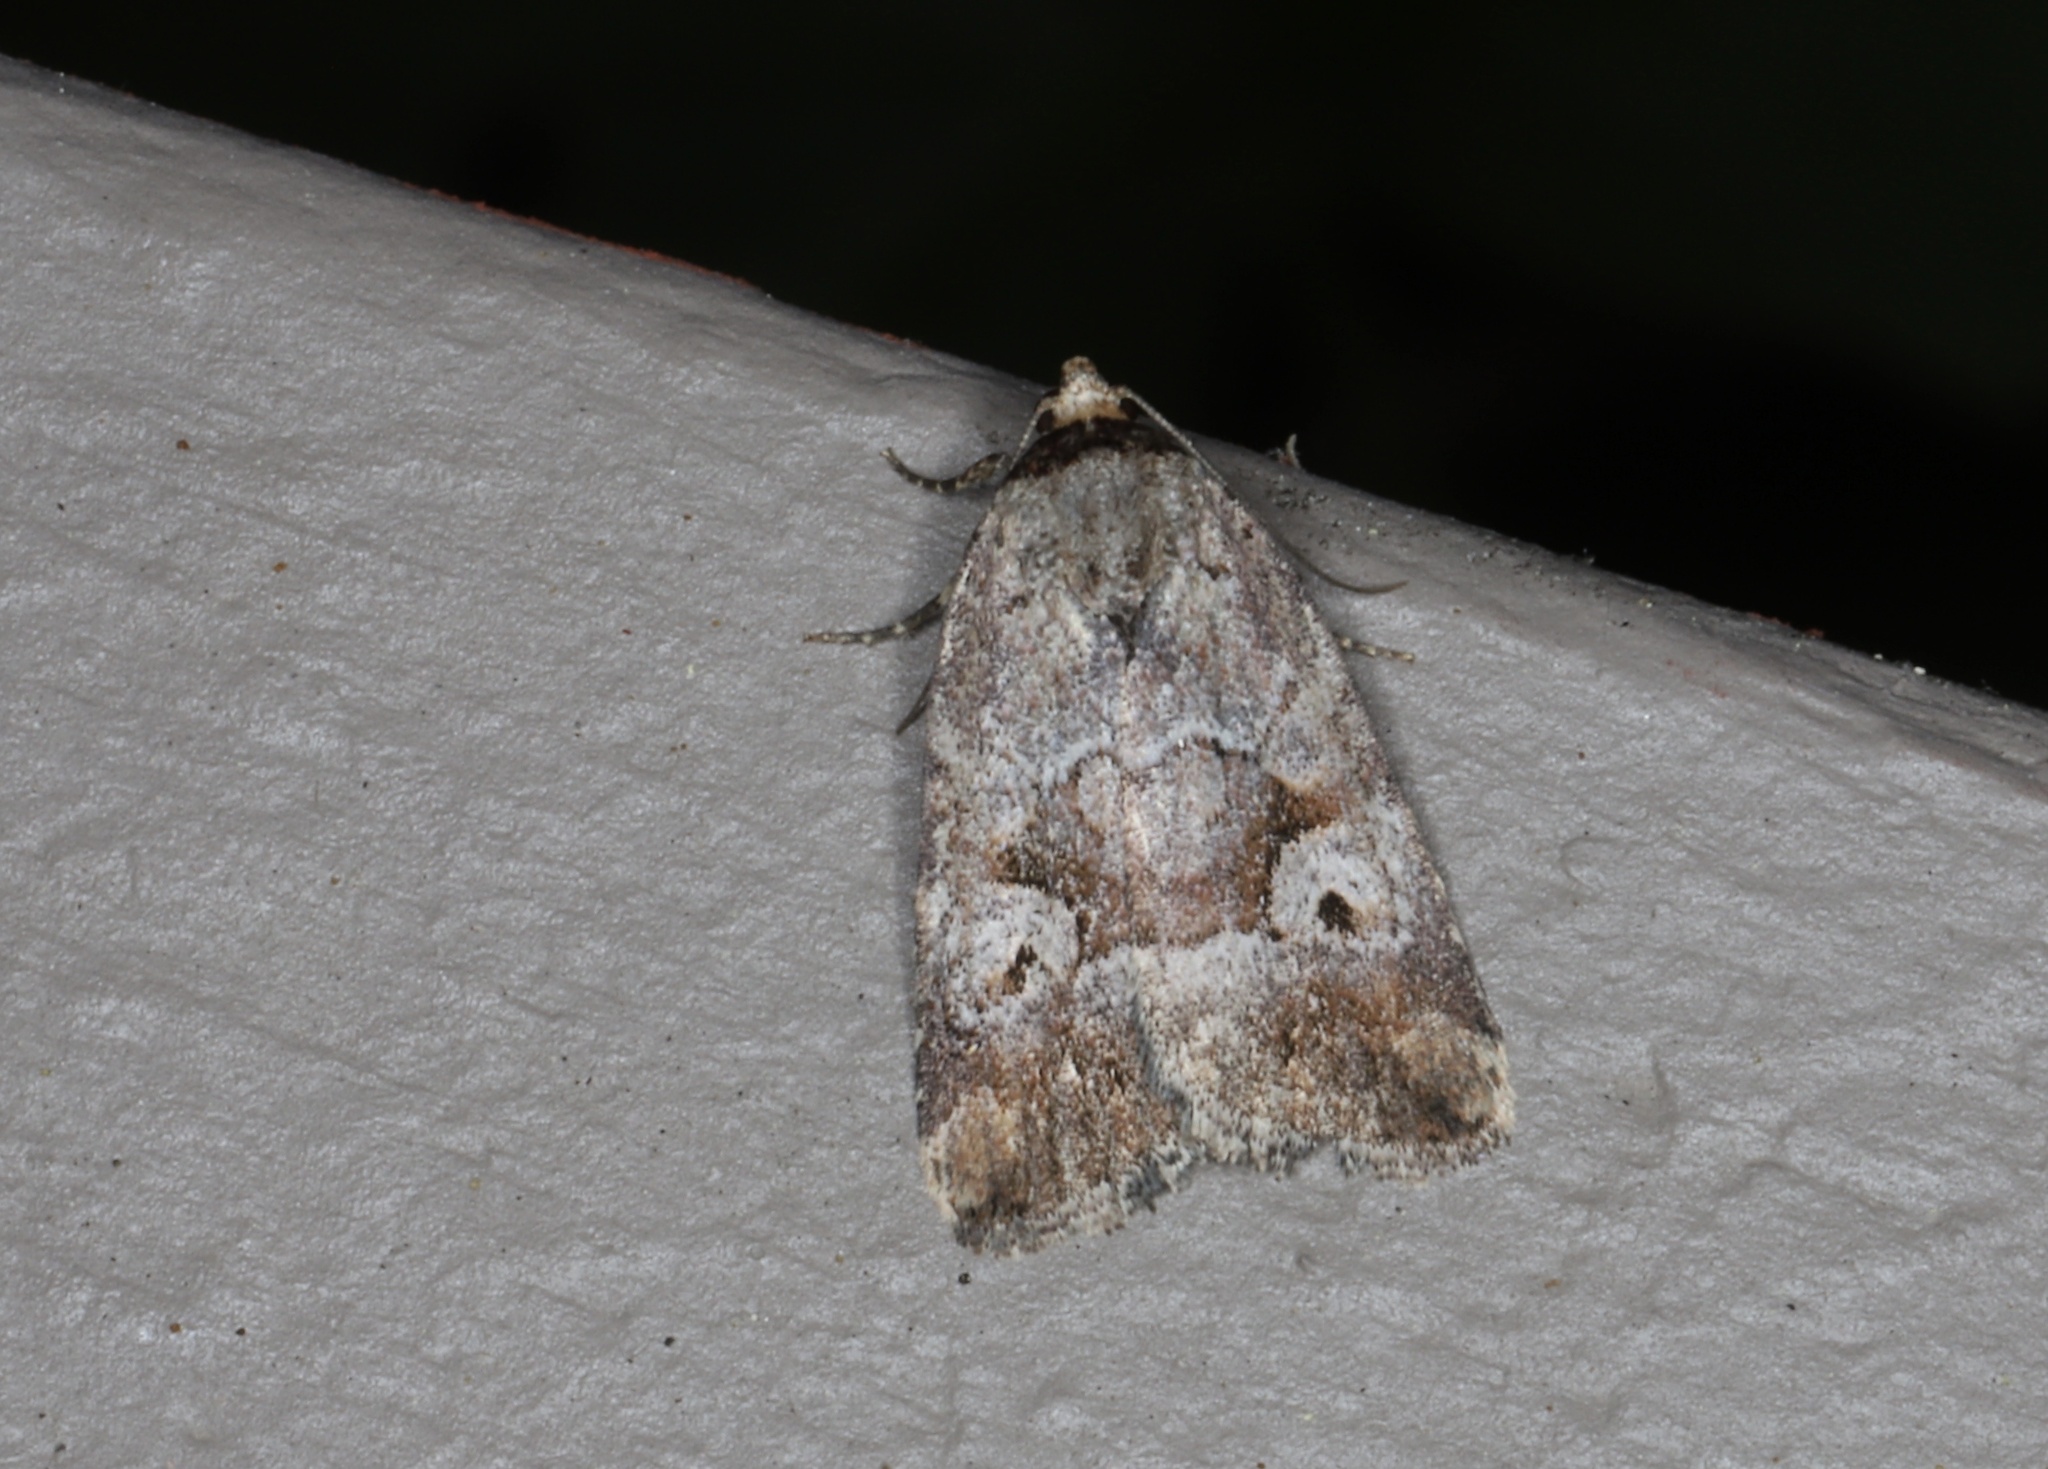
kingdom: Animalia
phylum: Arthropoda
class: Insecta
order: Lepidoptera
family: Noctuidae
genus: Elaphria
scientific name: Elaphria alapallida
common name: Pale-winged midget
